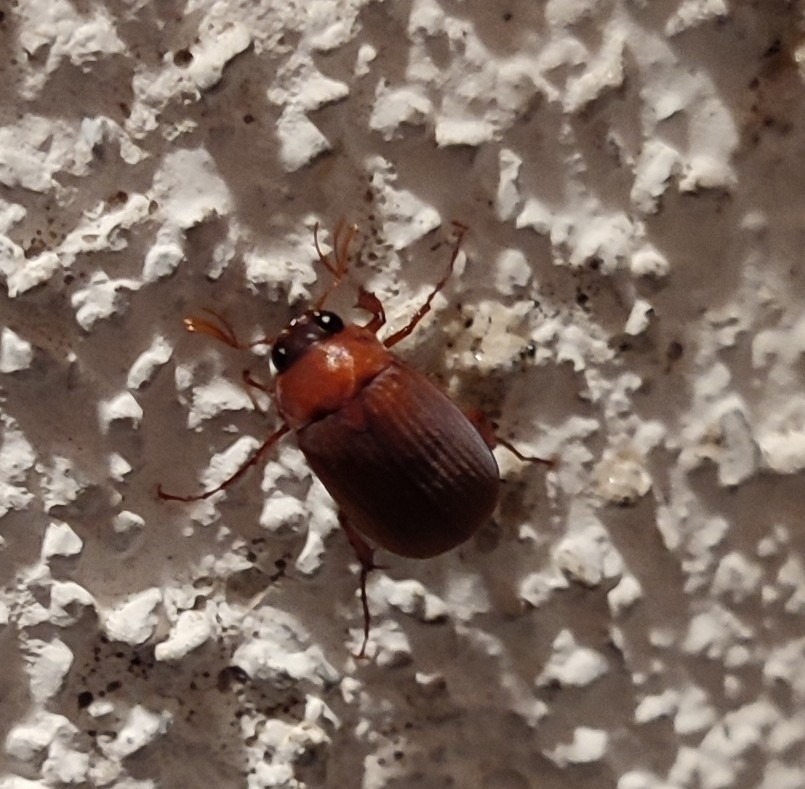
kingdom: Animalia
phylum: Arthropoda
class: Insecta
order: Coleoptera
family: Scarabaeidae
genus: Serica
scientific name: Serica brunnea
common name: Brown chafer
